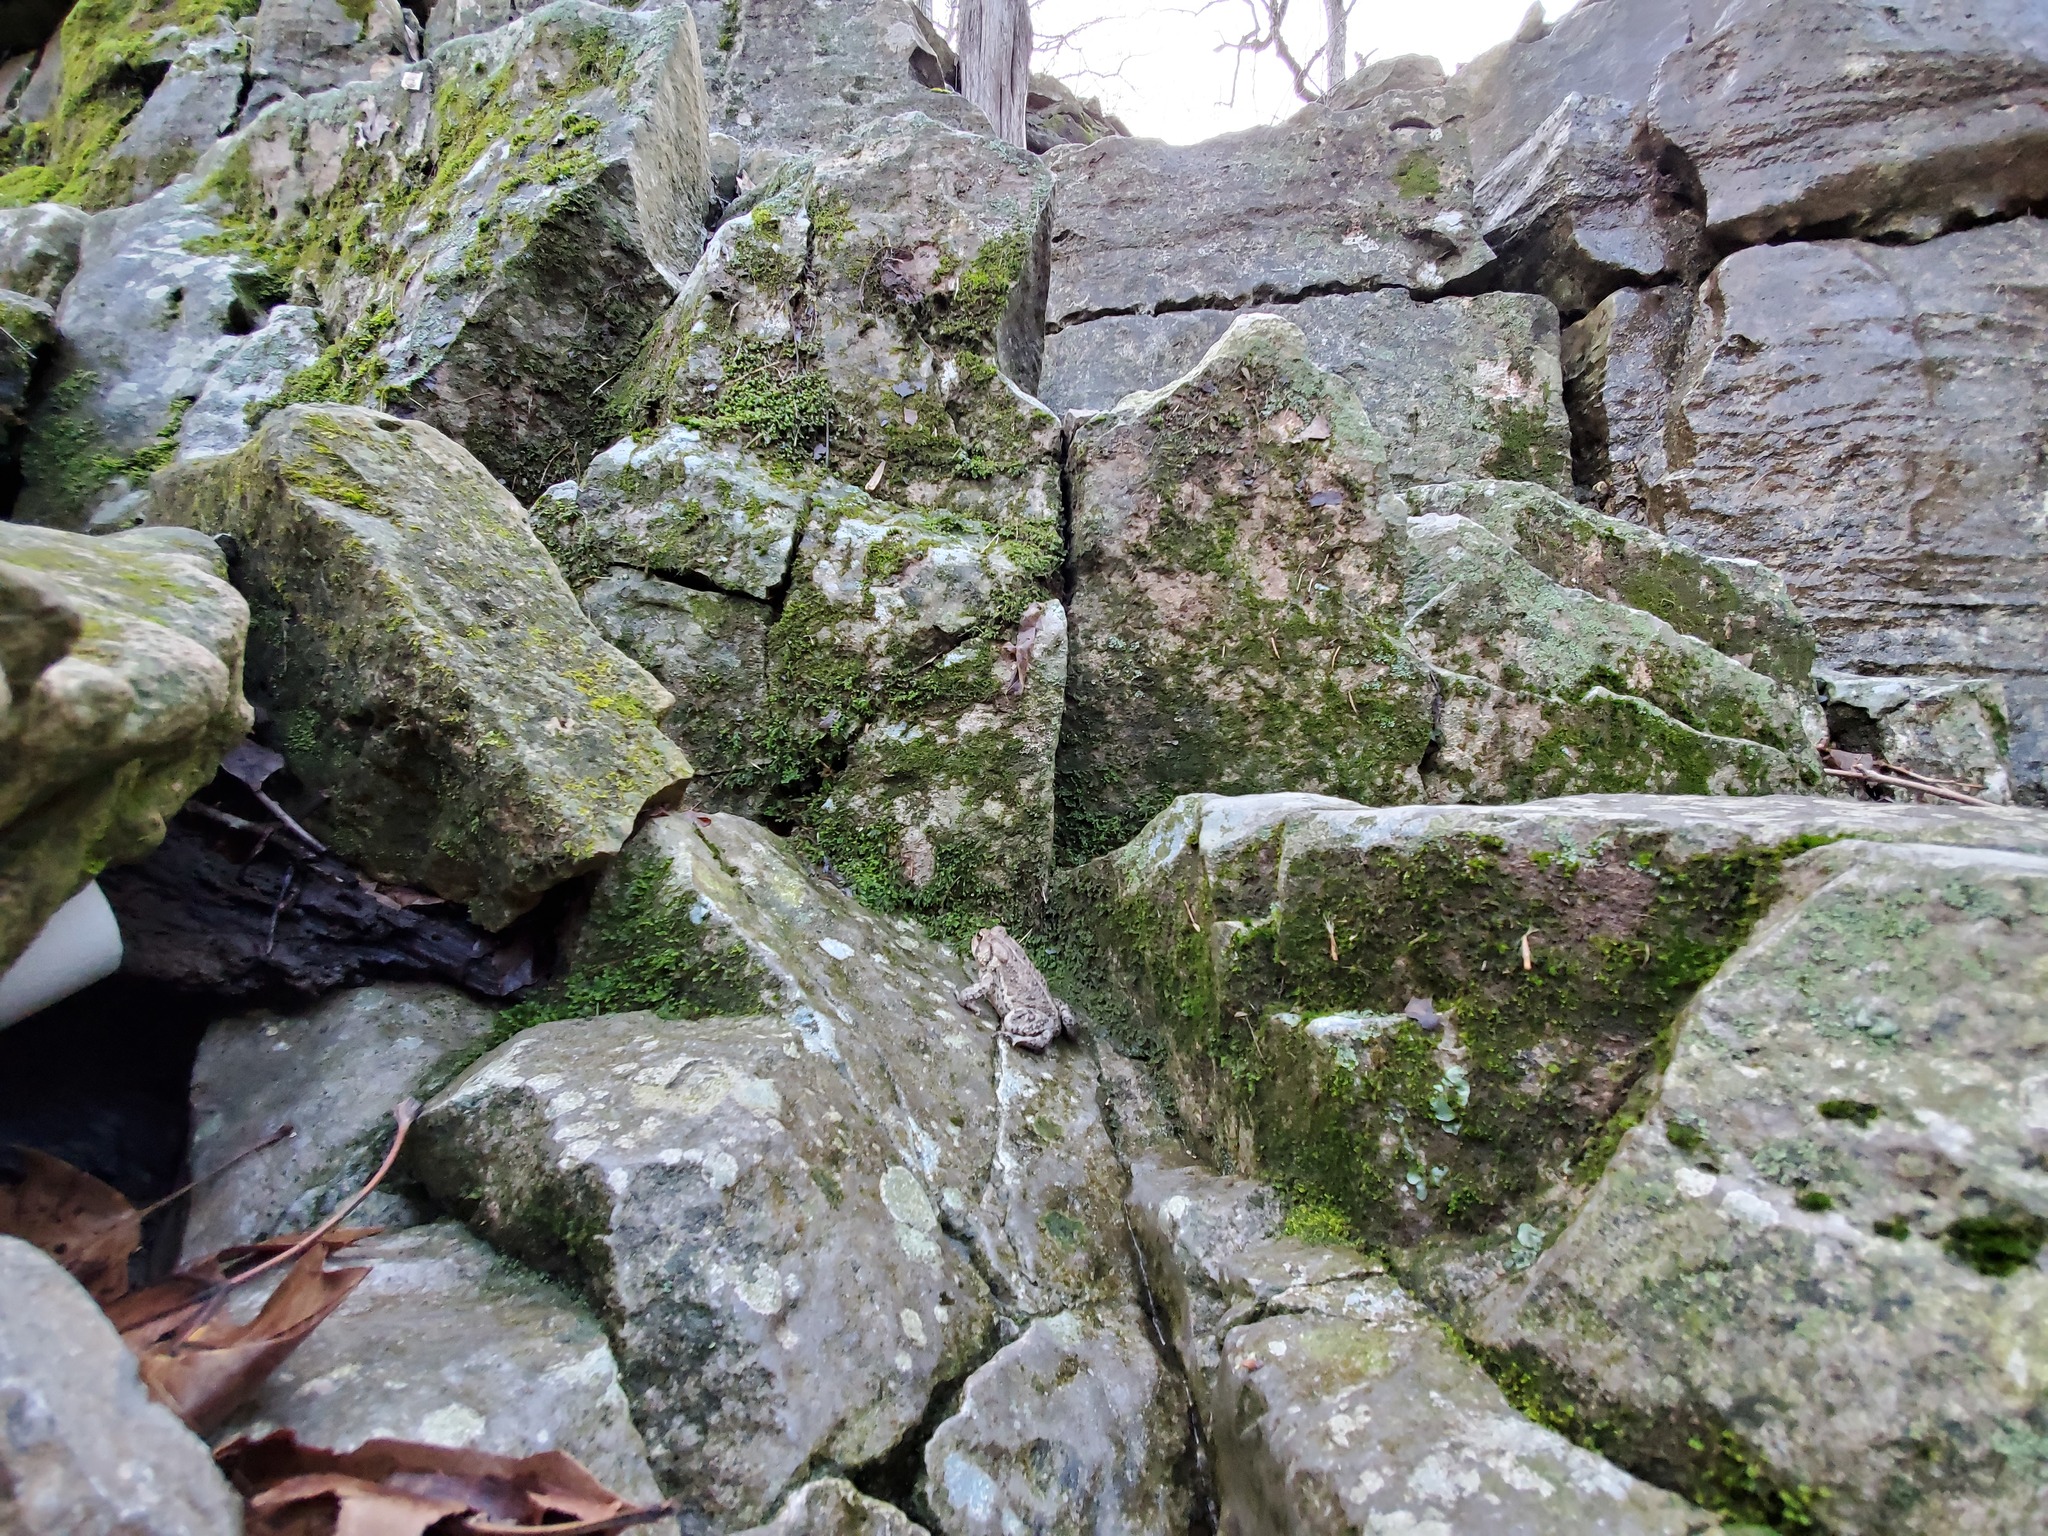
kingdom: Animalia
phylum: Chordata
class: Amphibia
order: Anura
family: Bufonidae
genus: Anaxyrus
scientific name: Anaxyrus americanus
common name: American toad
